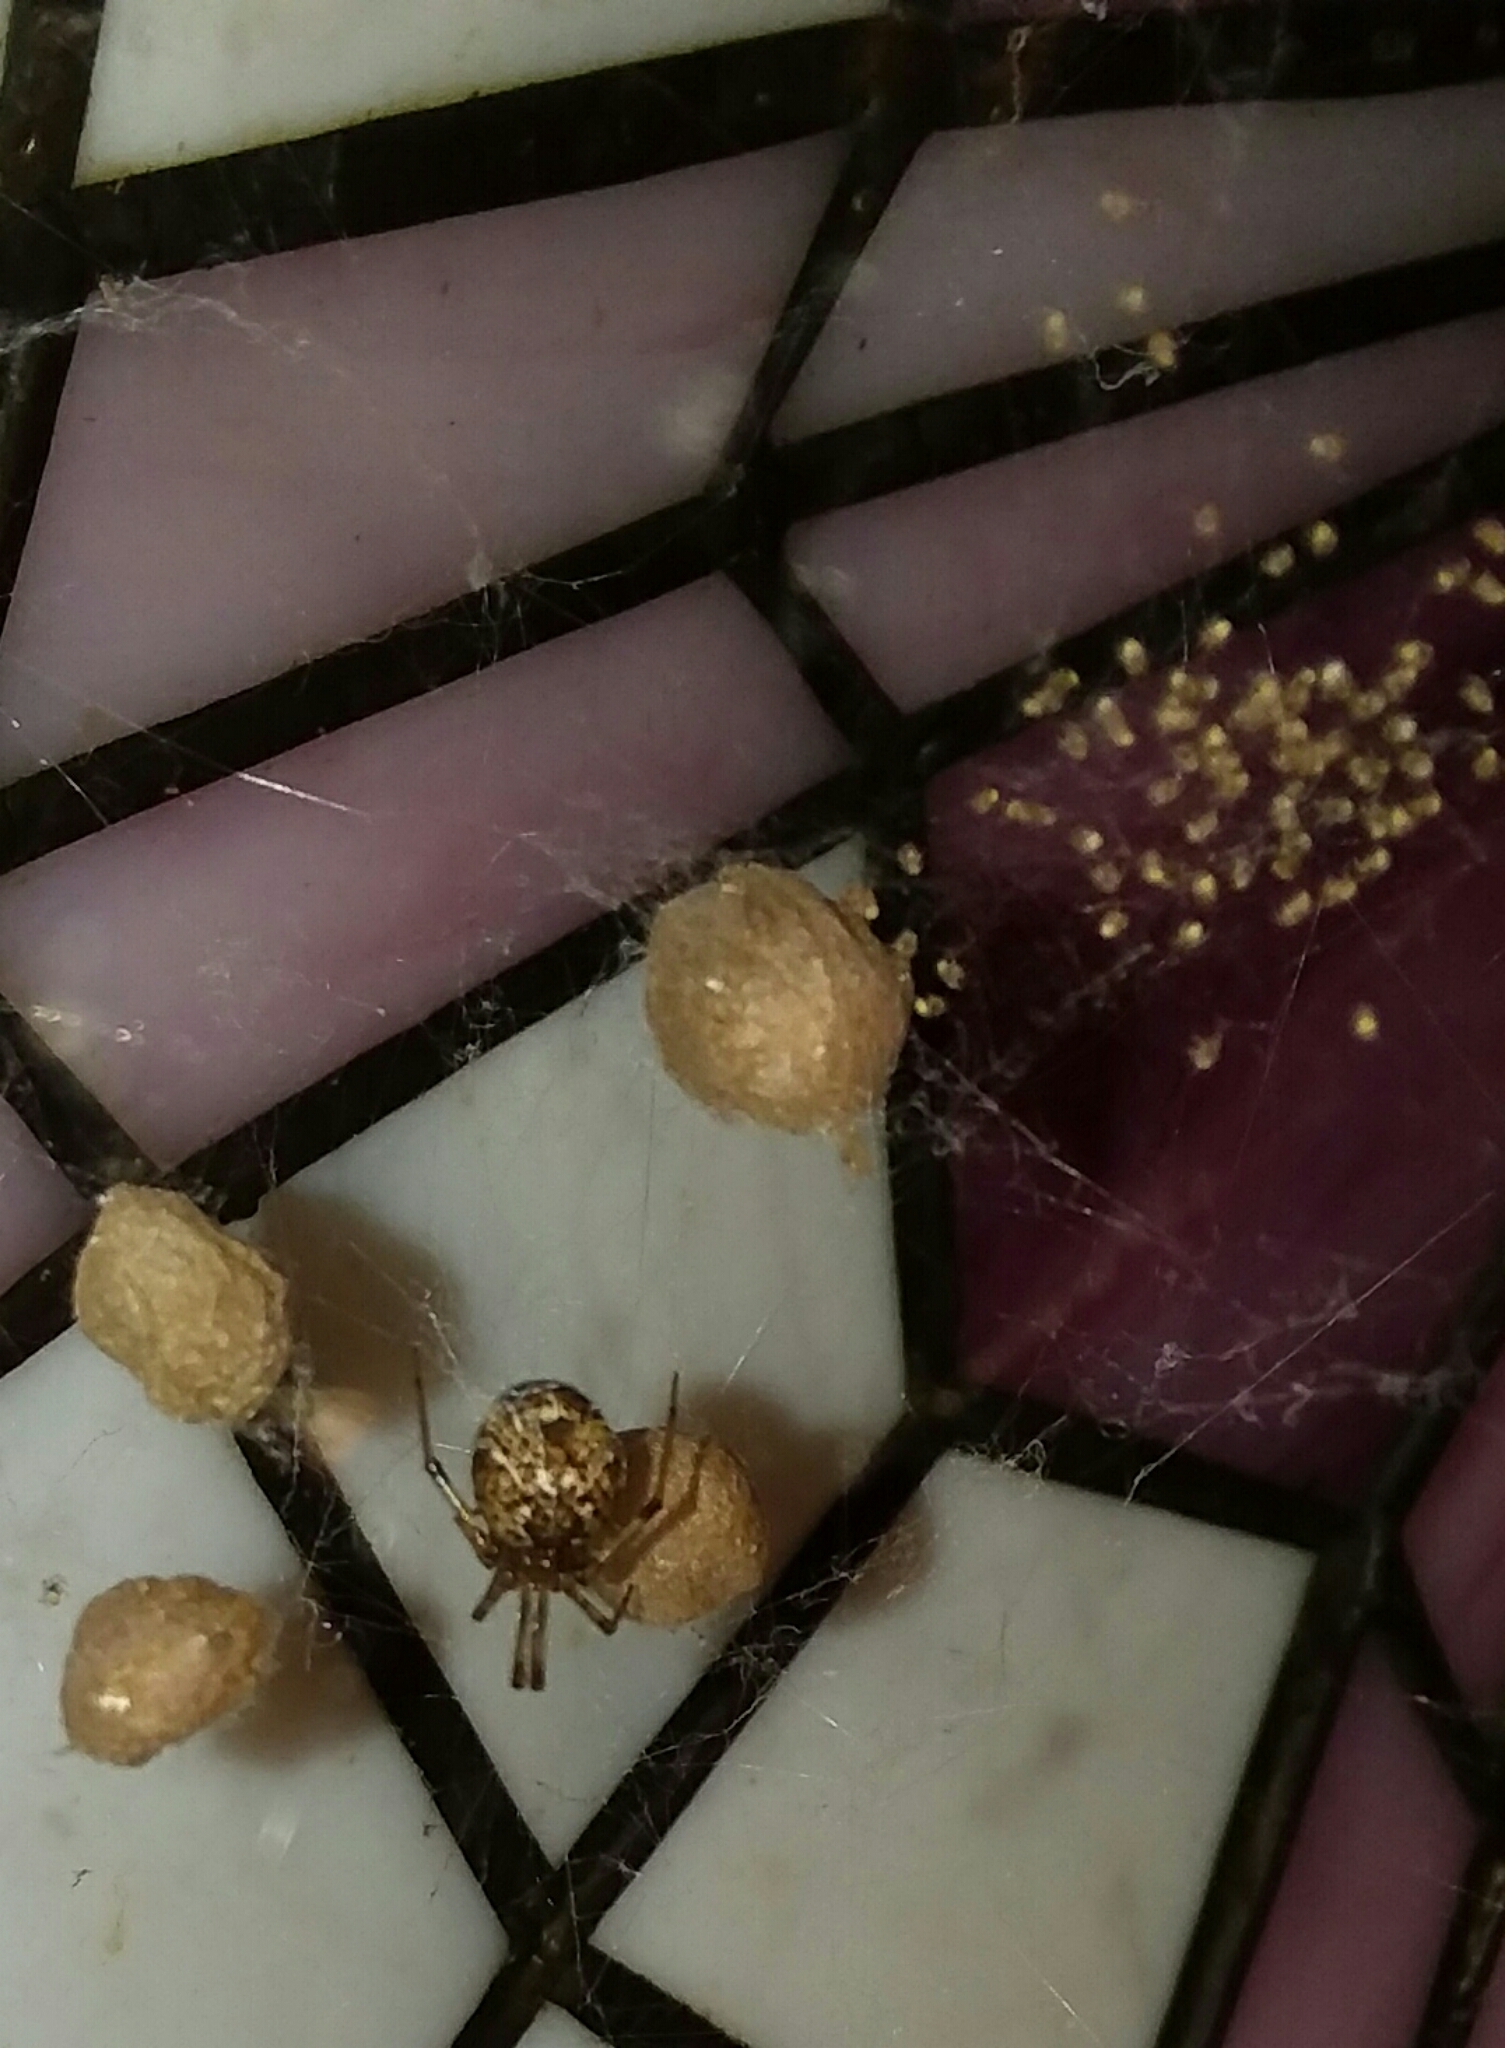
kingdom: Animalia
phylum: Arthropoda
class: Arachnida
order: Araneae
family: Theridiidae
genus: Parasteatoda
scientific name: Parasteatoda tepidariorum
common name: Common house spider
